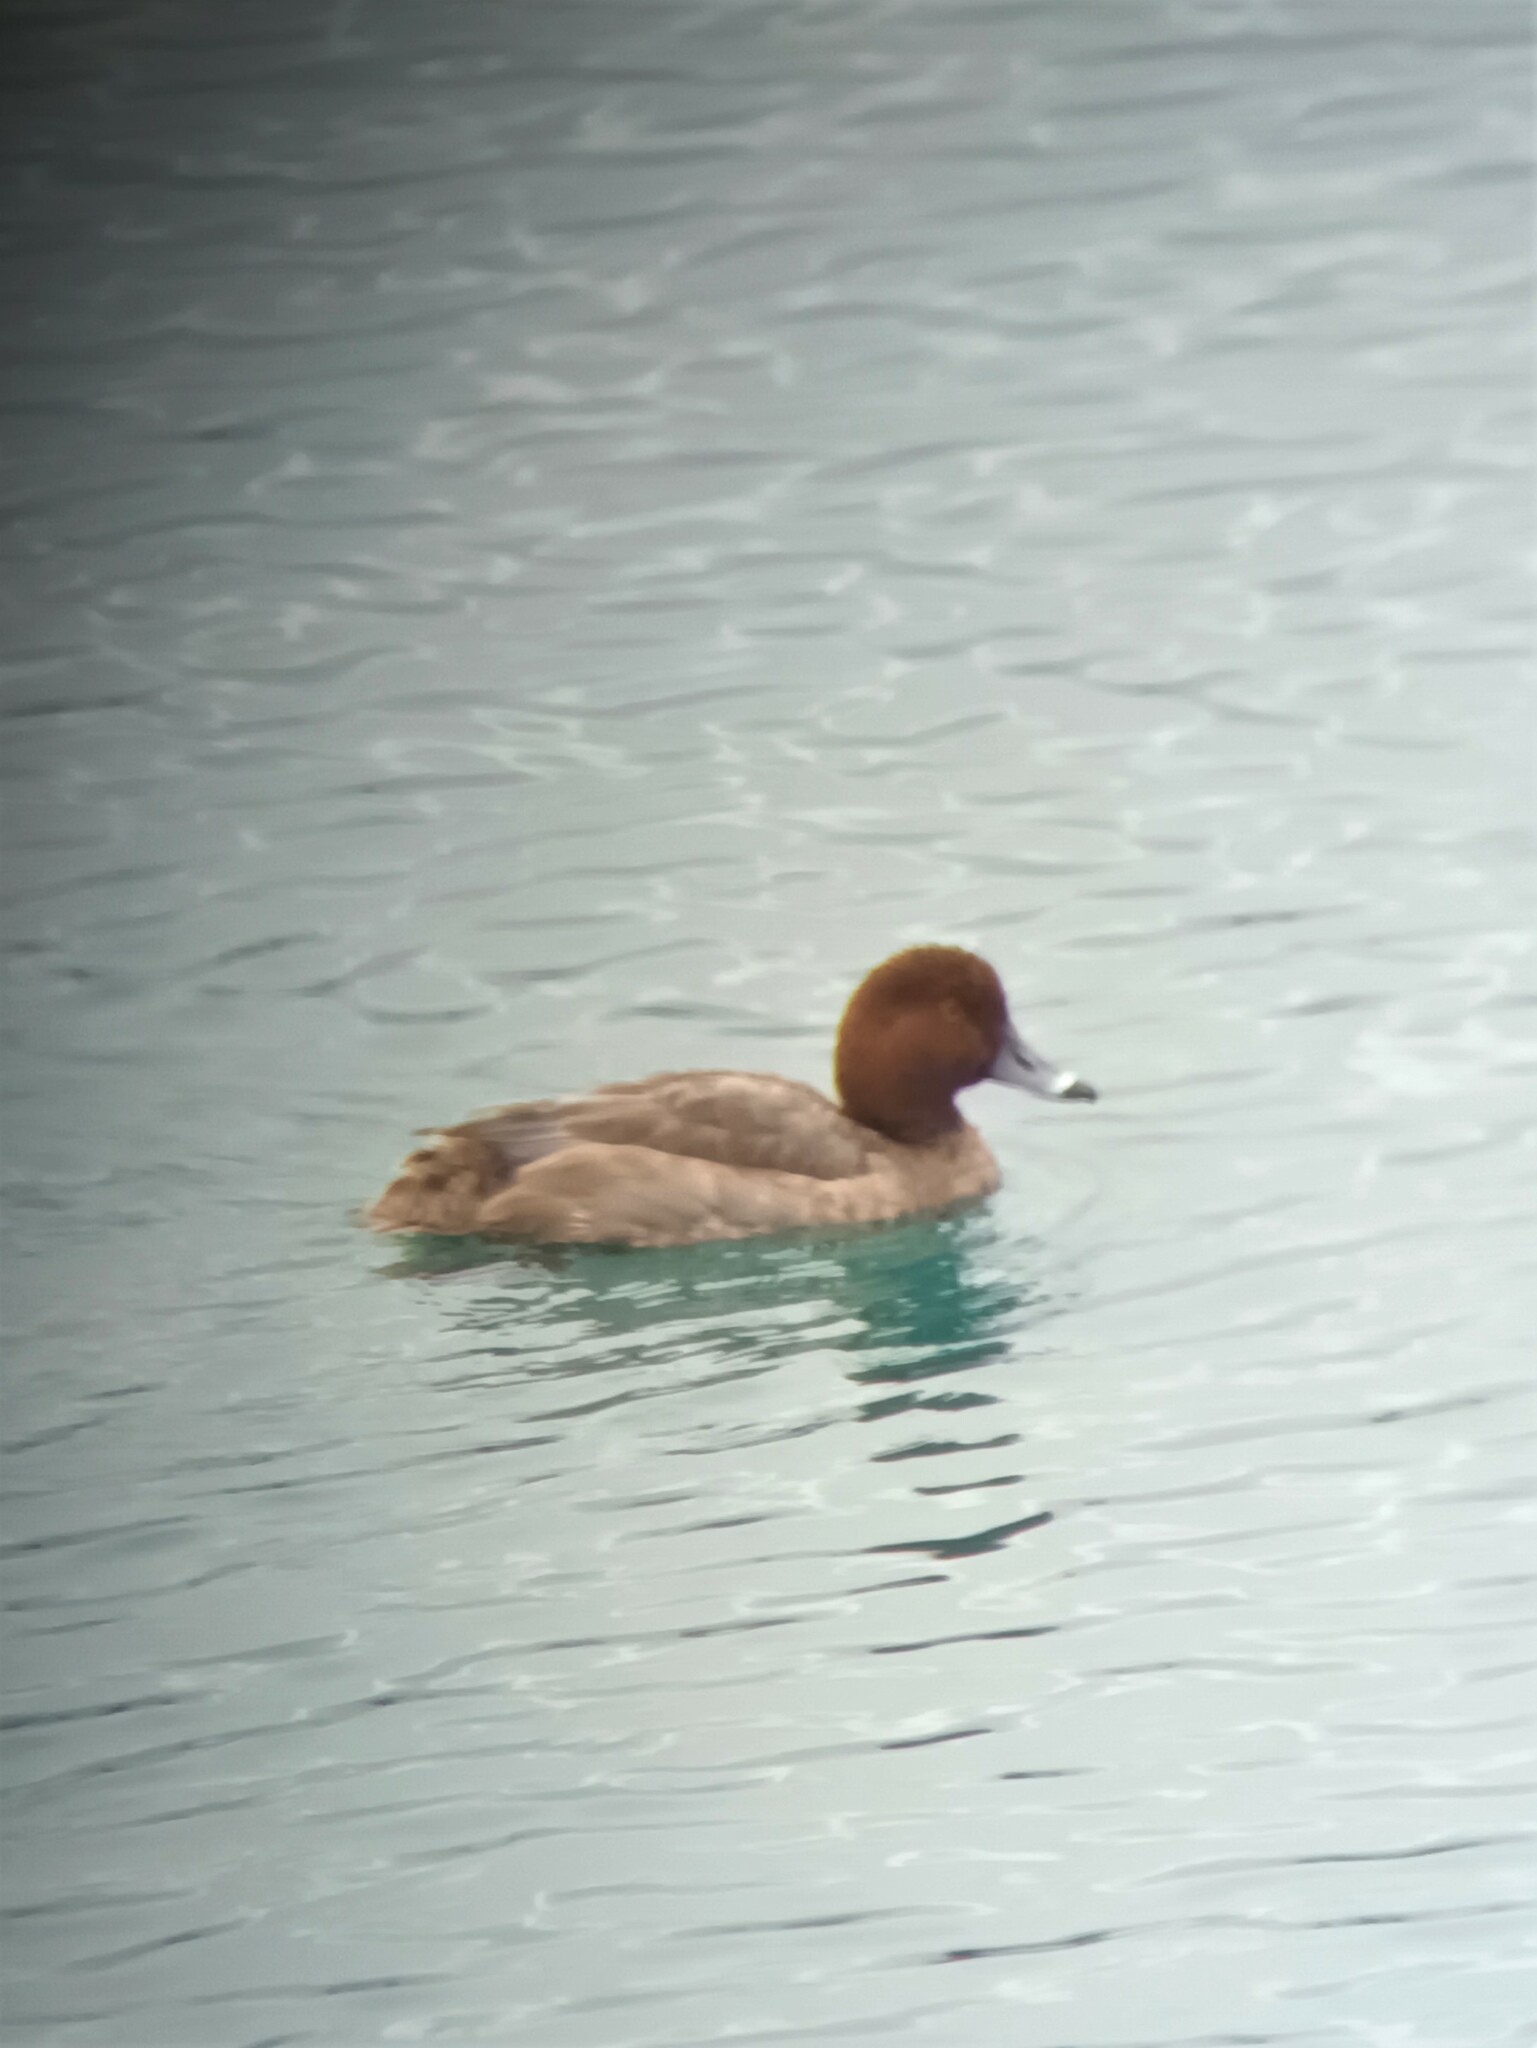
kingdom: Animalia
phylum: Chordata
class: Aves
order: Anseriformes
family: Anatidae
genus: Aythya
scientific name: Aythya americana
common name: Redhead
